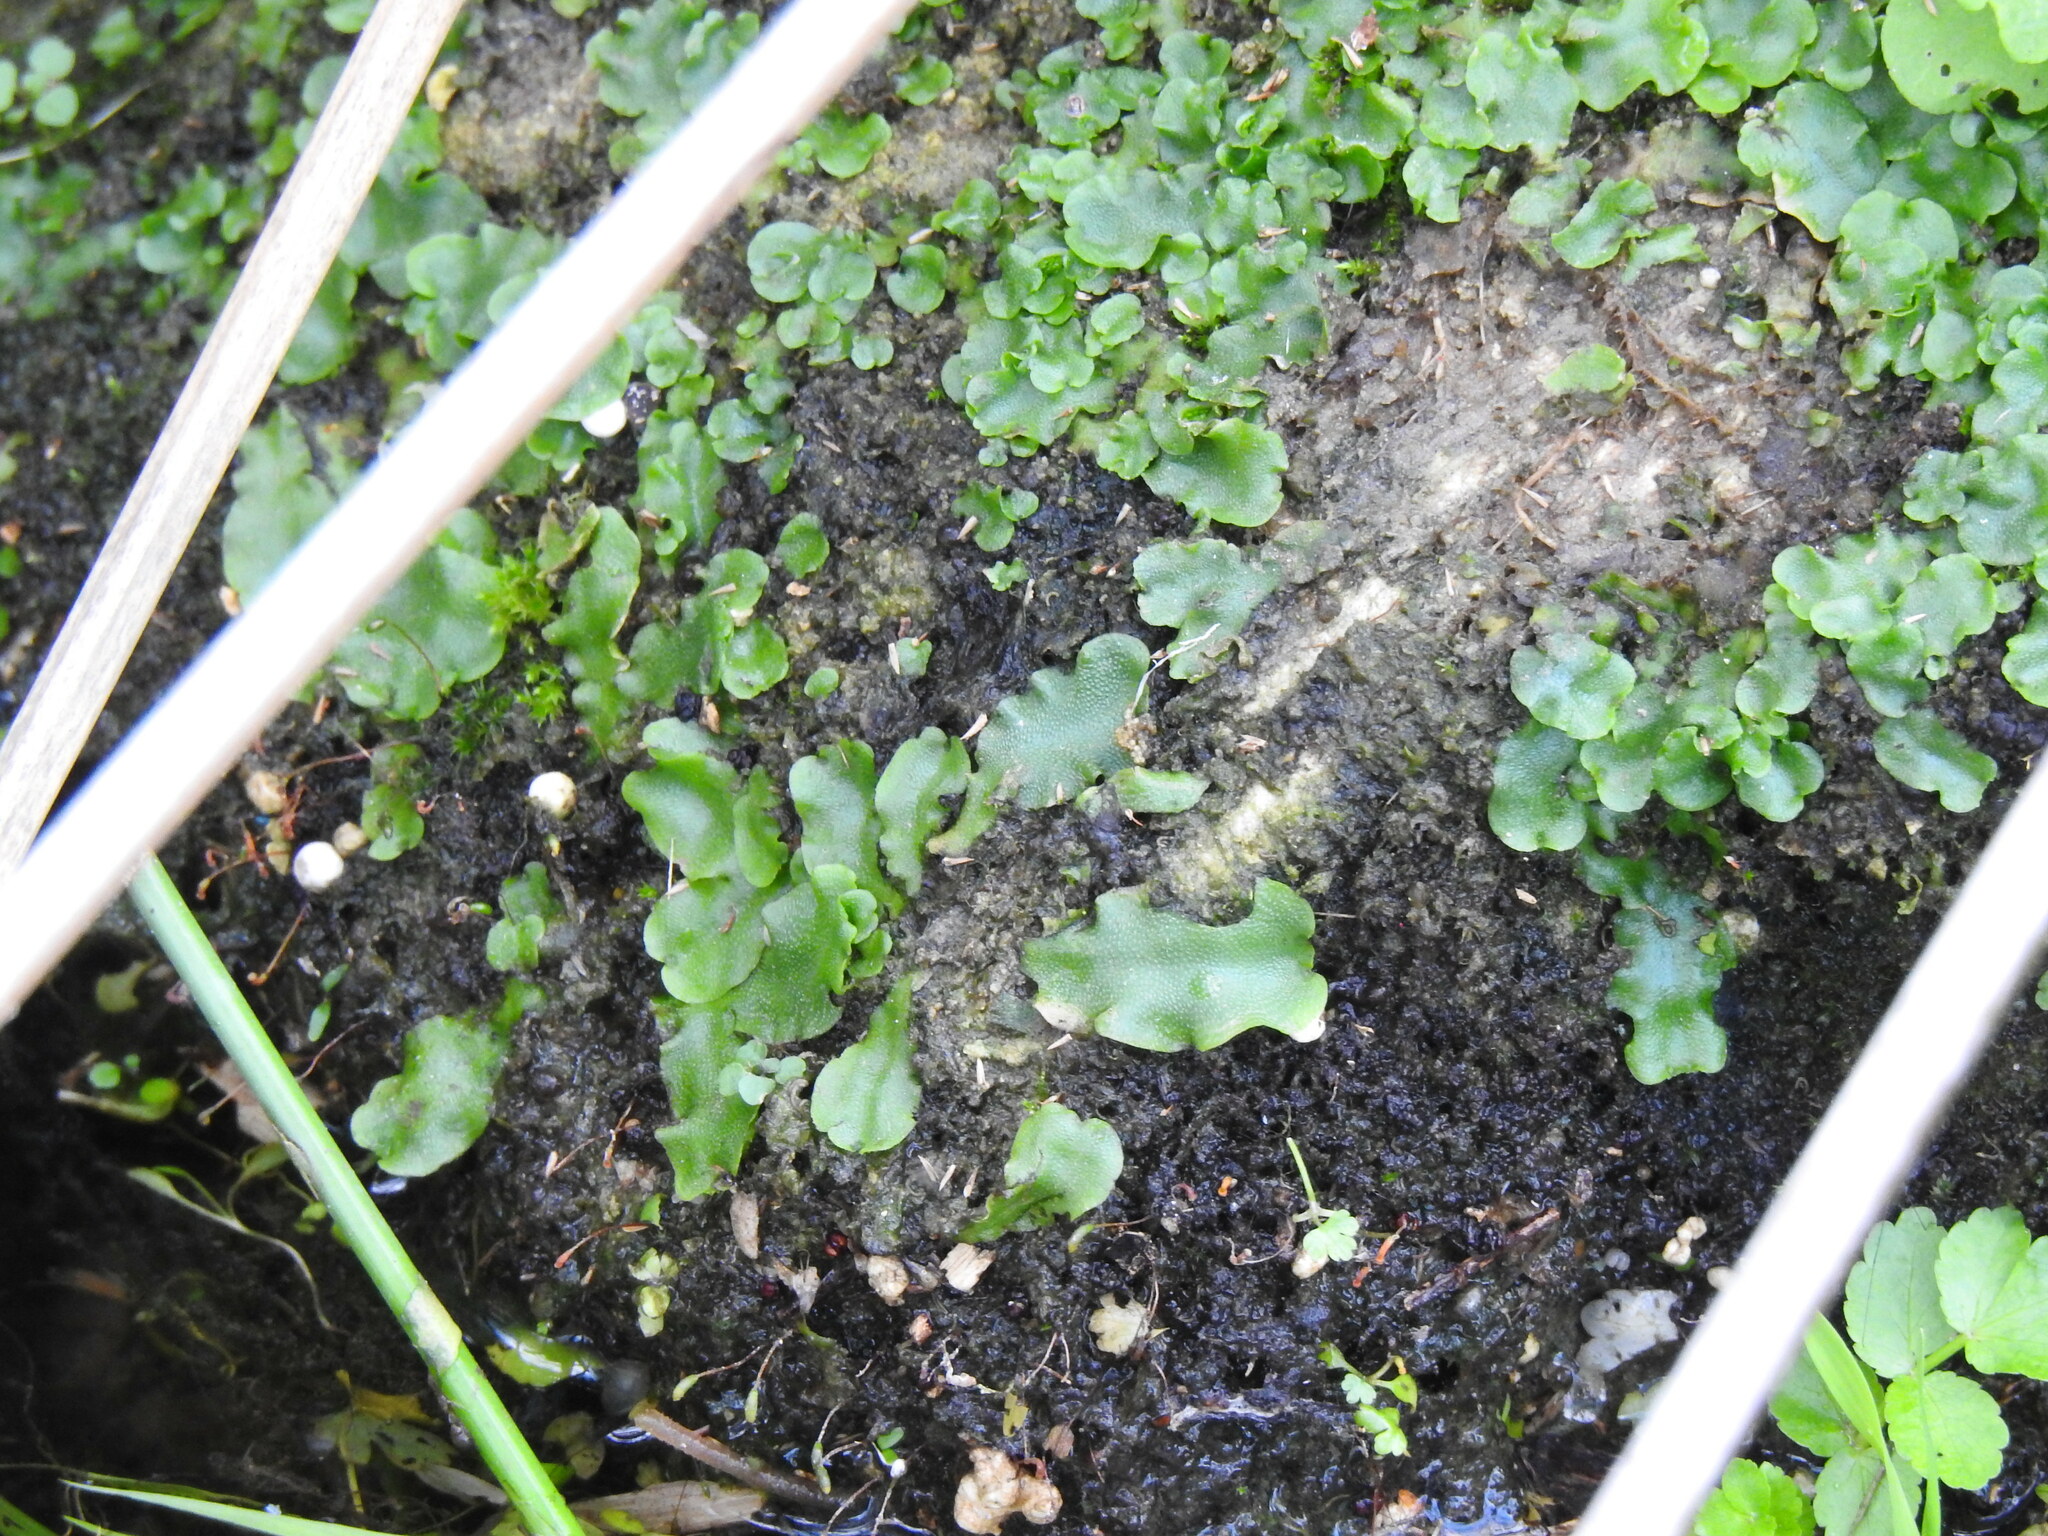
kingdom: Plantae
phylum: Marchantiophyta
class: Marchantiopsida
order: Lunulariales
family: Lunulariaceae
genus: Lunularia
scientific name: Lunularia cruciata
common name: Crescent-cup liverwort
